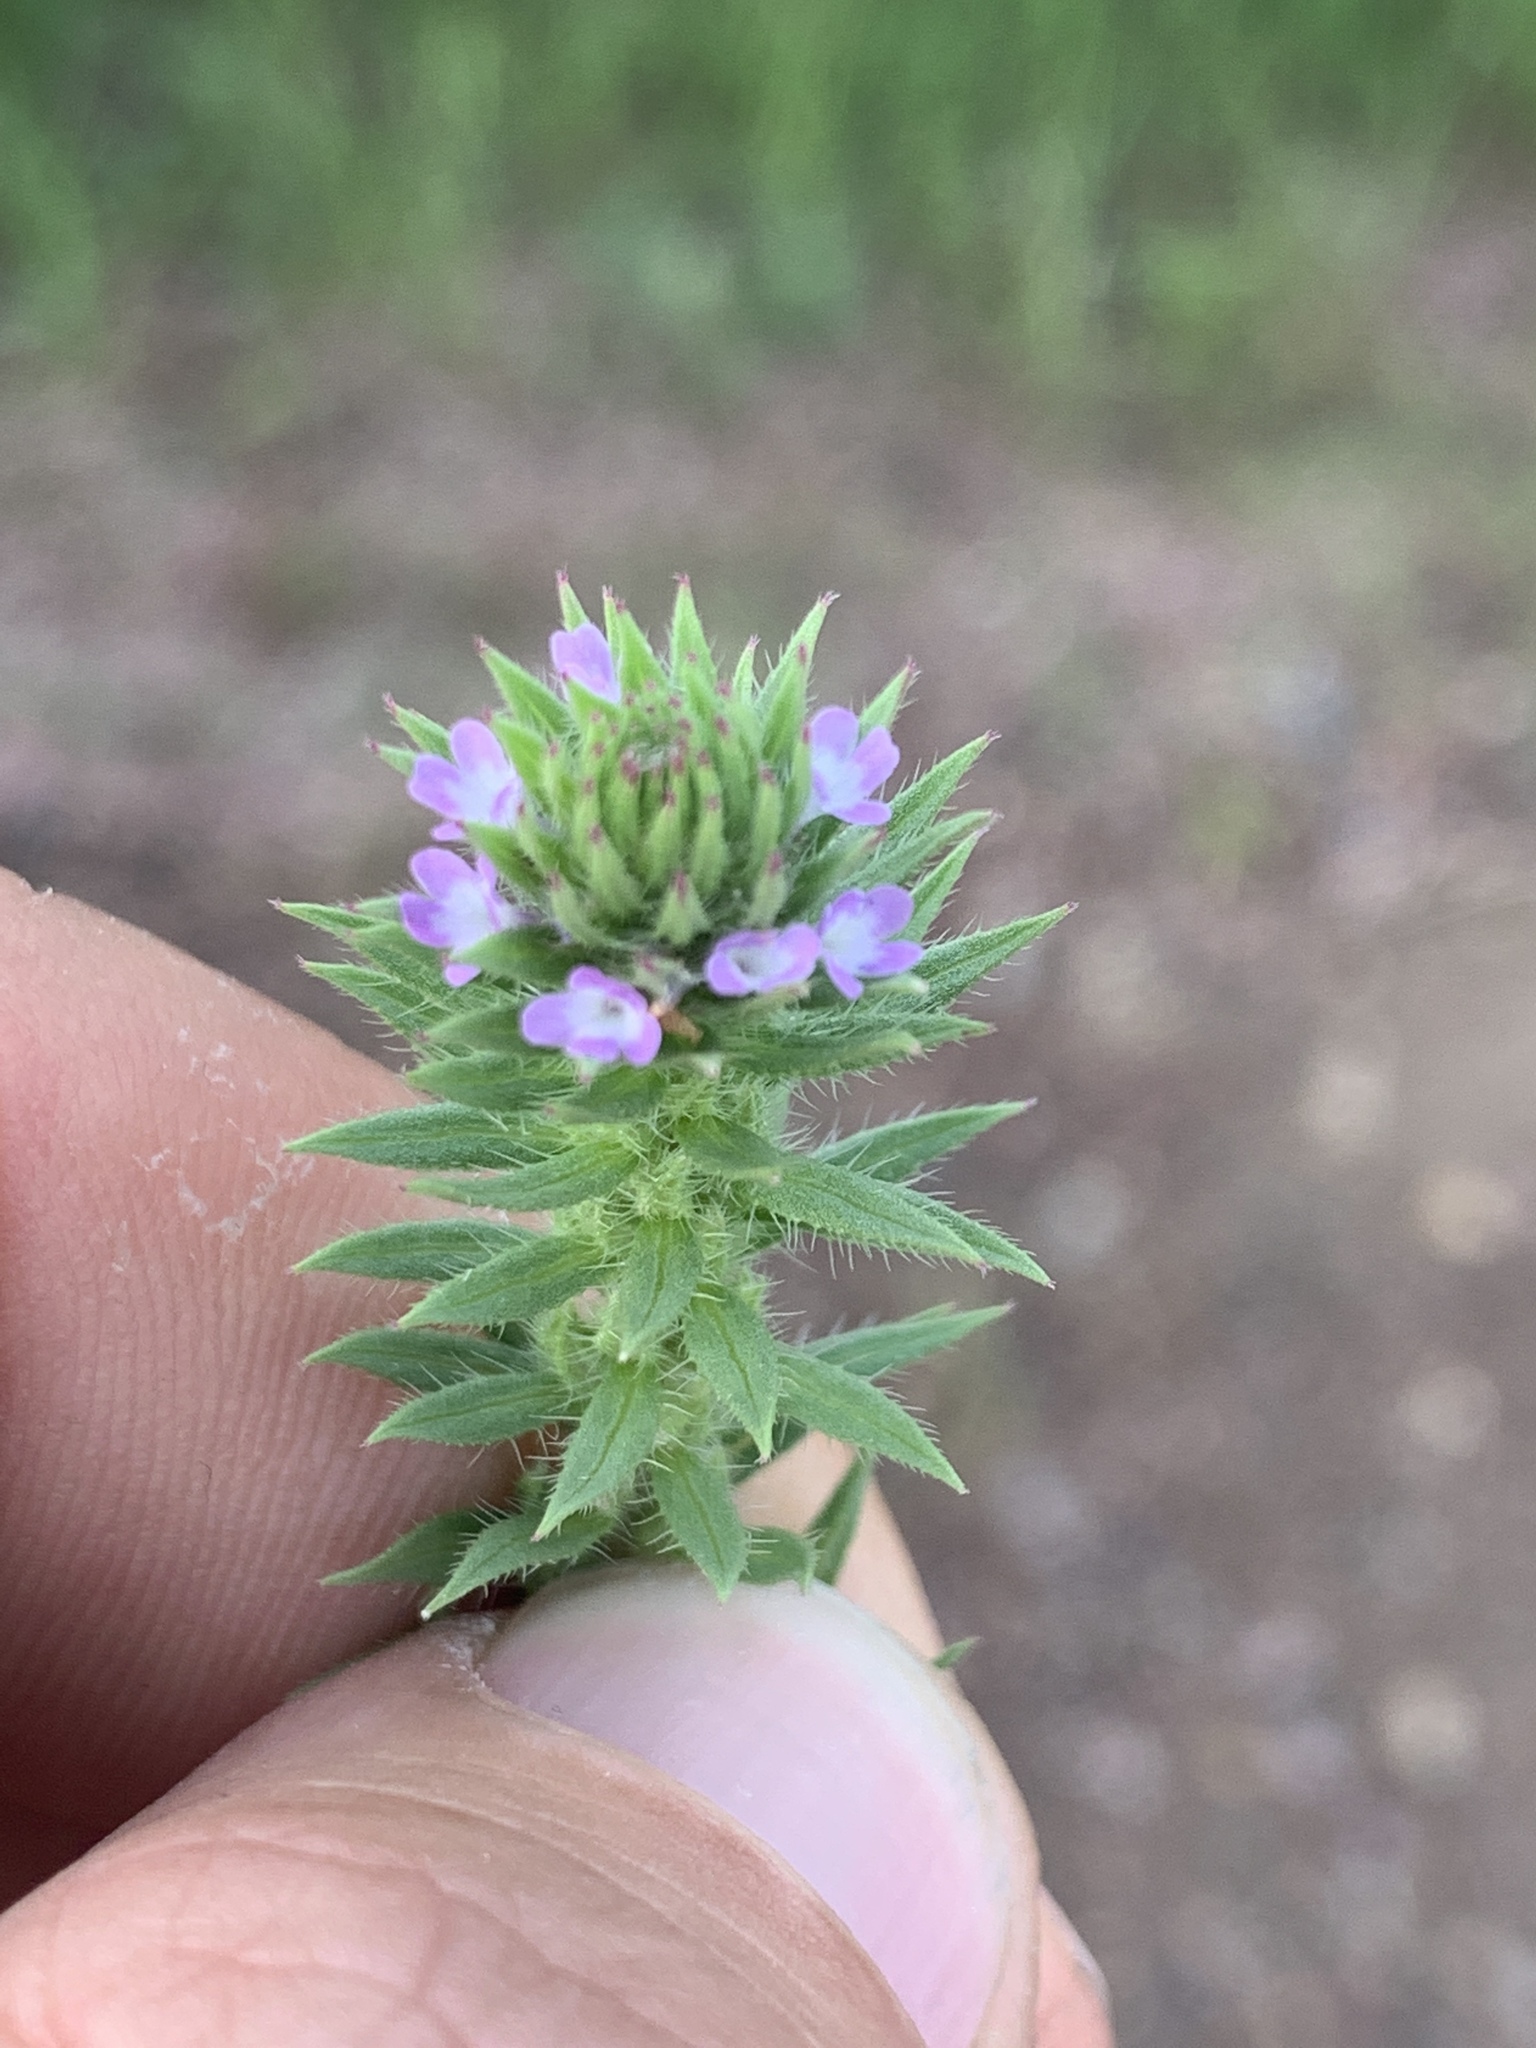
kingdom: Plantae
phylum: Tracheophyta
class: Magnoliopsida
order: Lamiales
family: Verbenaceae
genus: Verbena
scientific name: Verbena bracteata
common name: Bracted vervain
